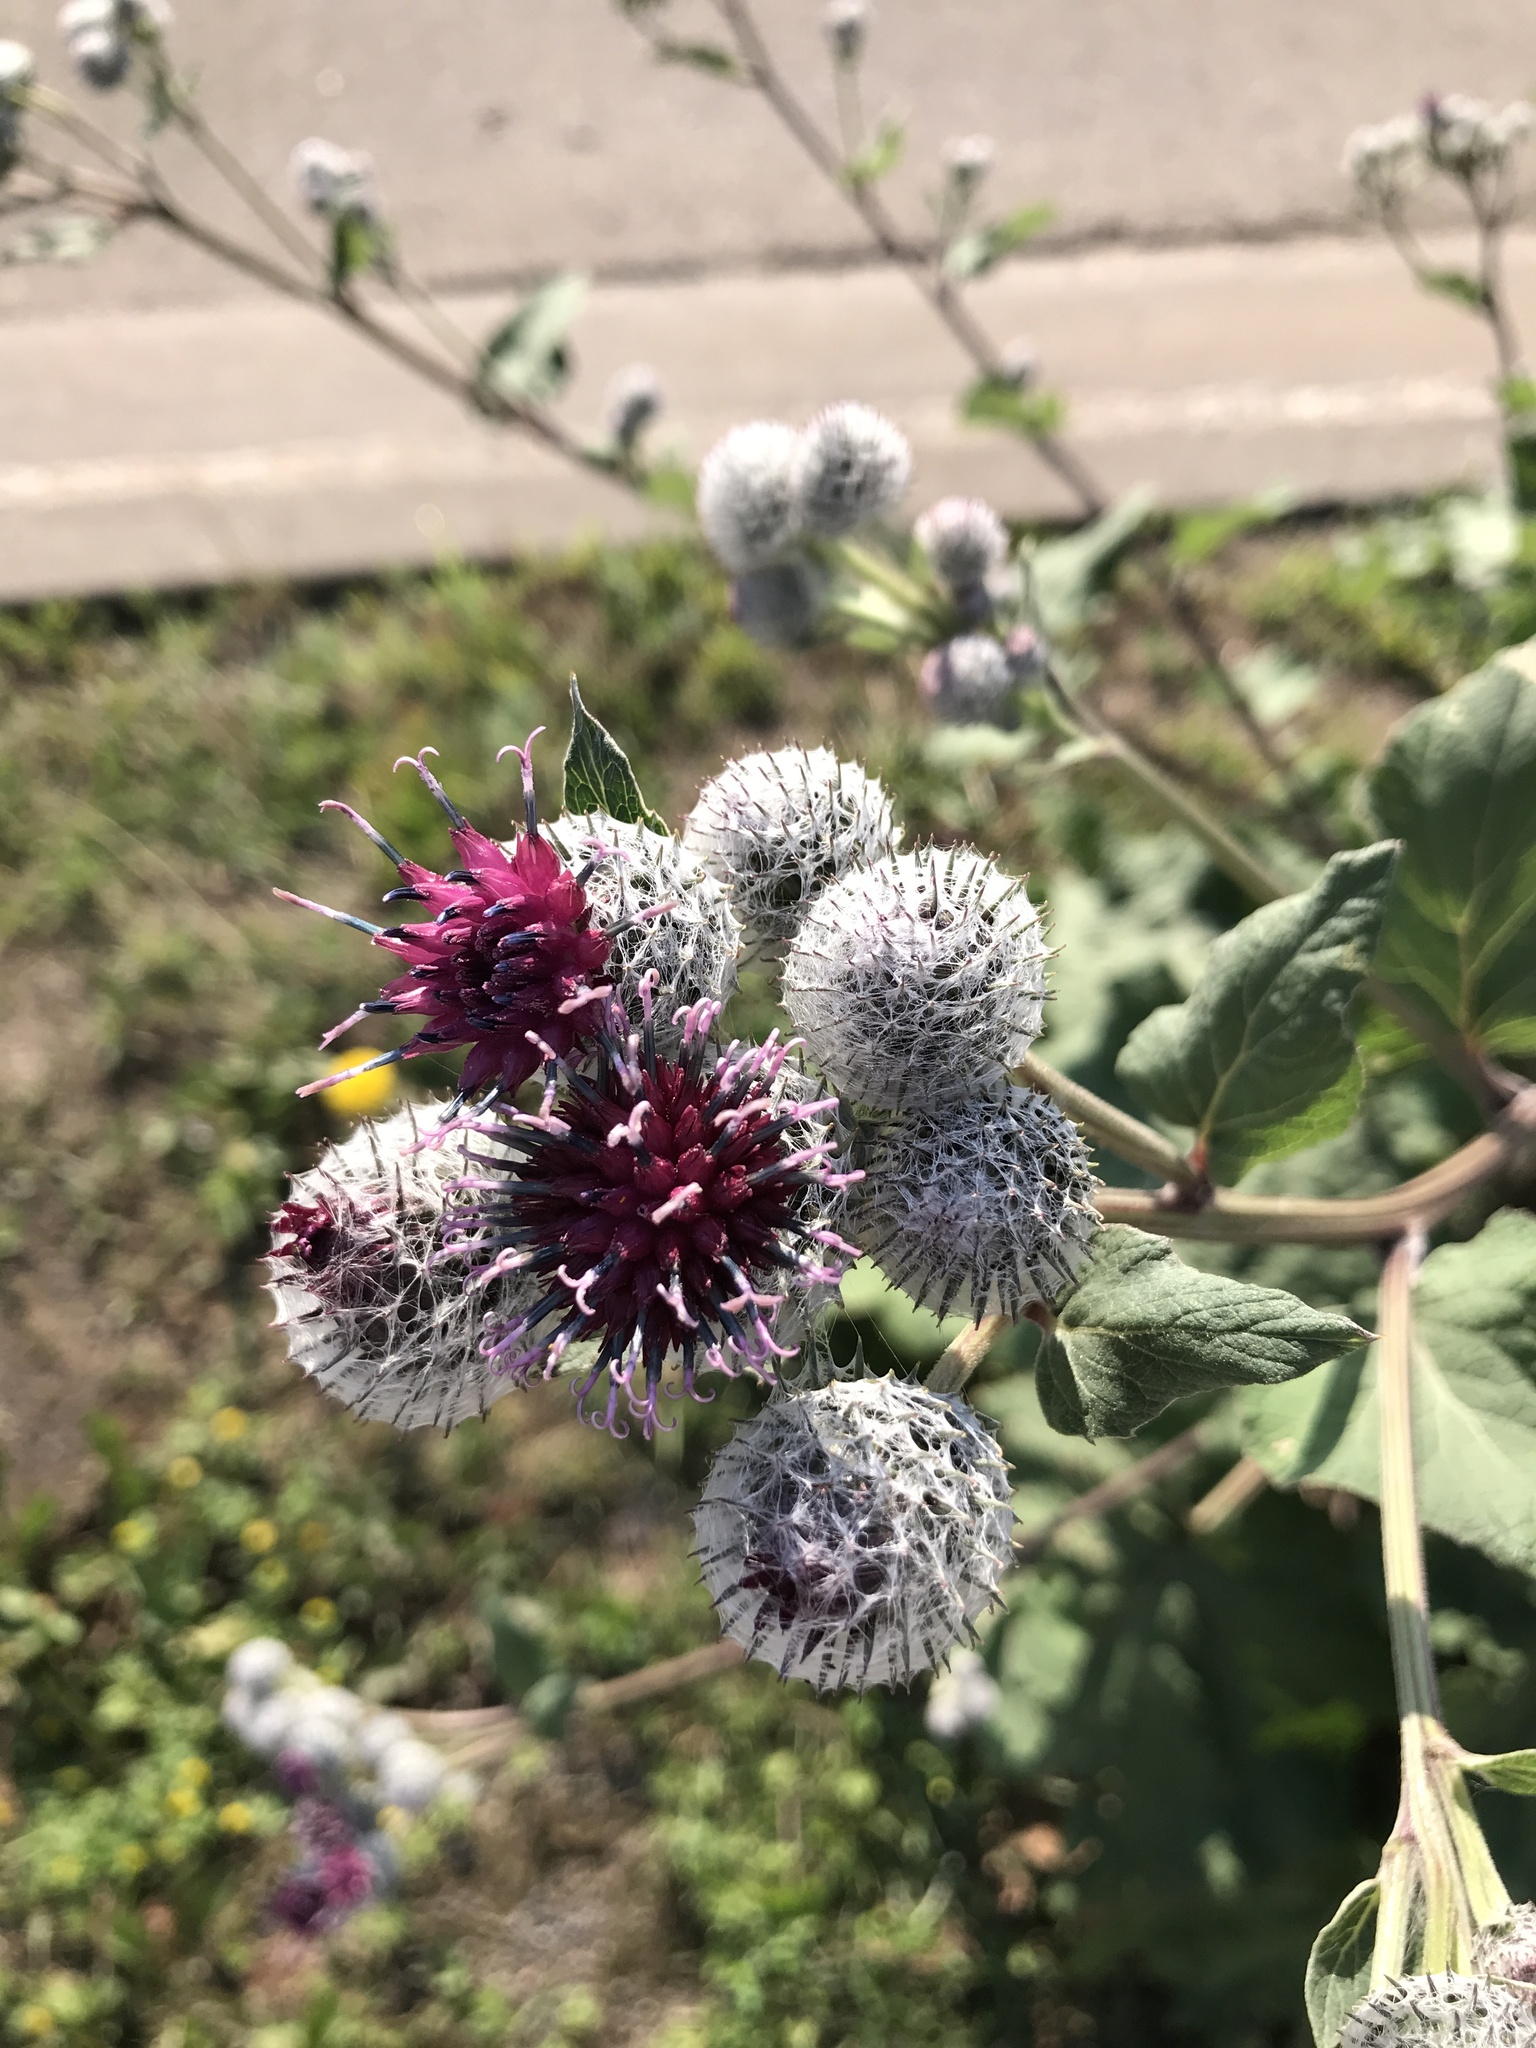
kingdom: Plantae
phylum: Tracheophyta
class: Magnoliopsida
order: Asterales
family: Asteraceae
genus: Arctium
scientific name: Arctium tomentosum
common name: Woolly burdock
